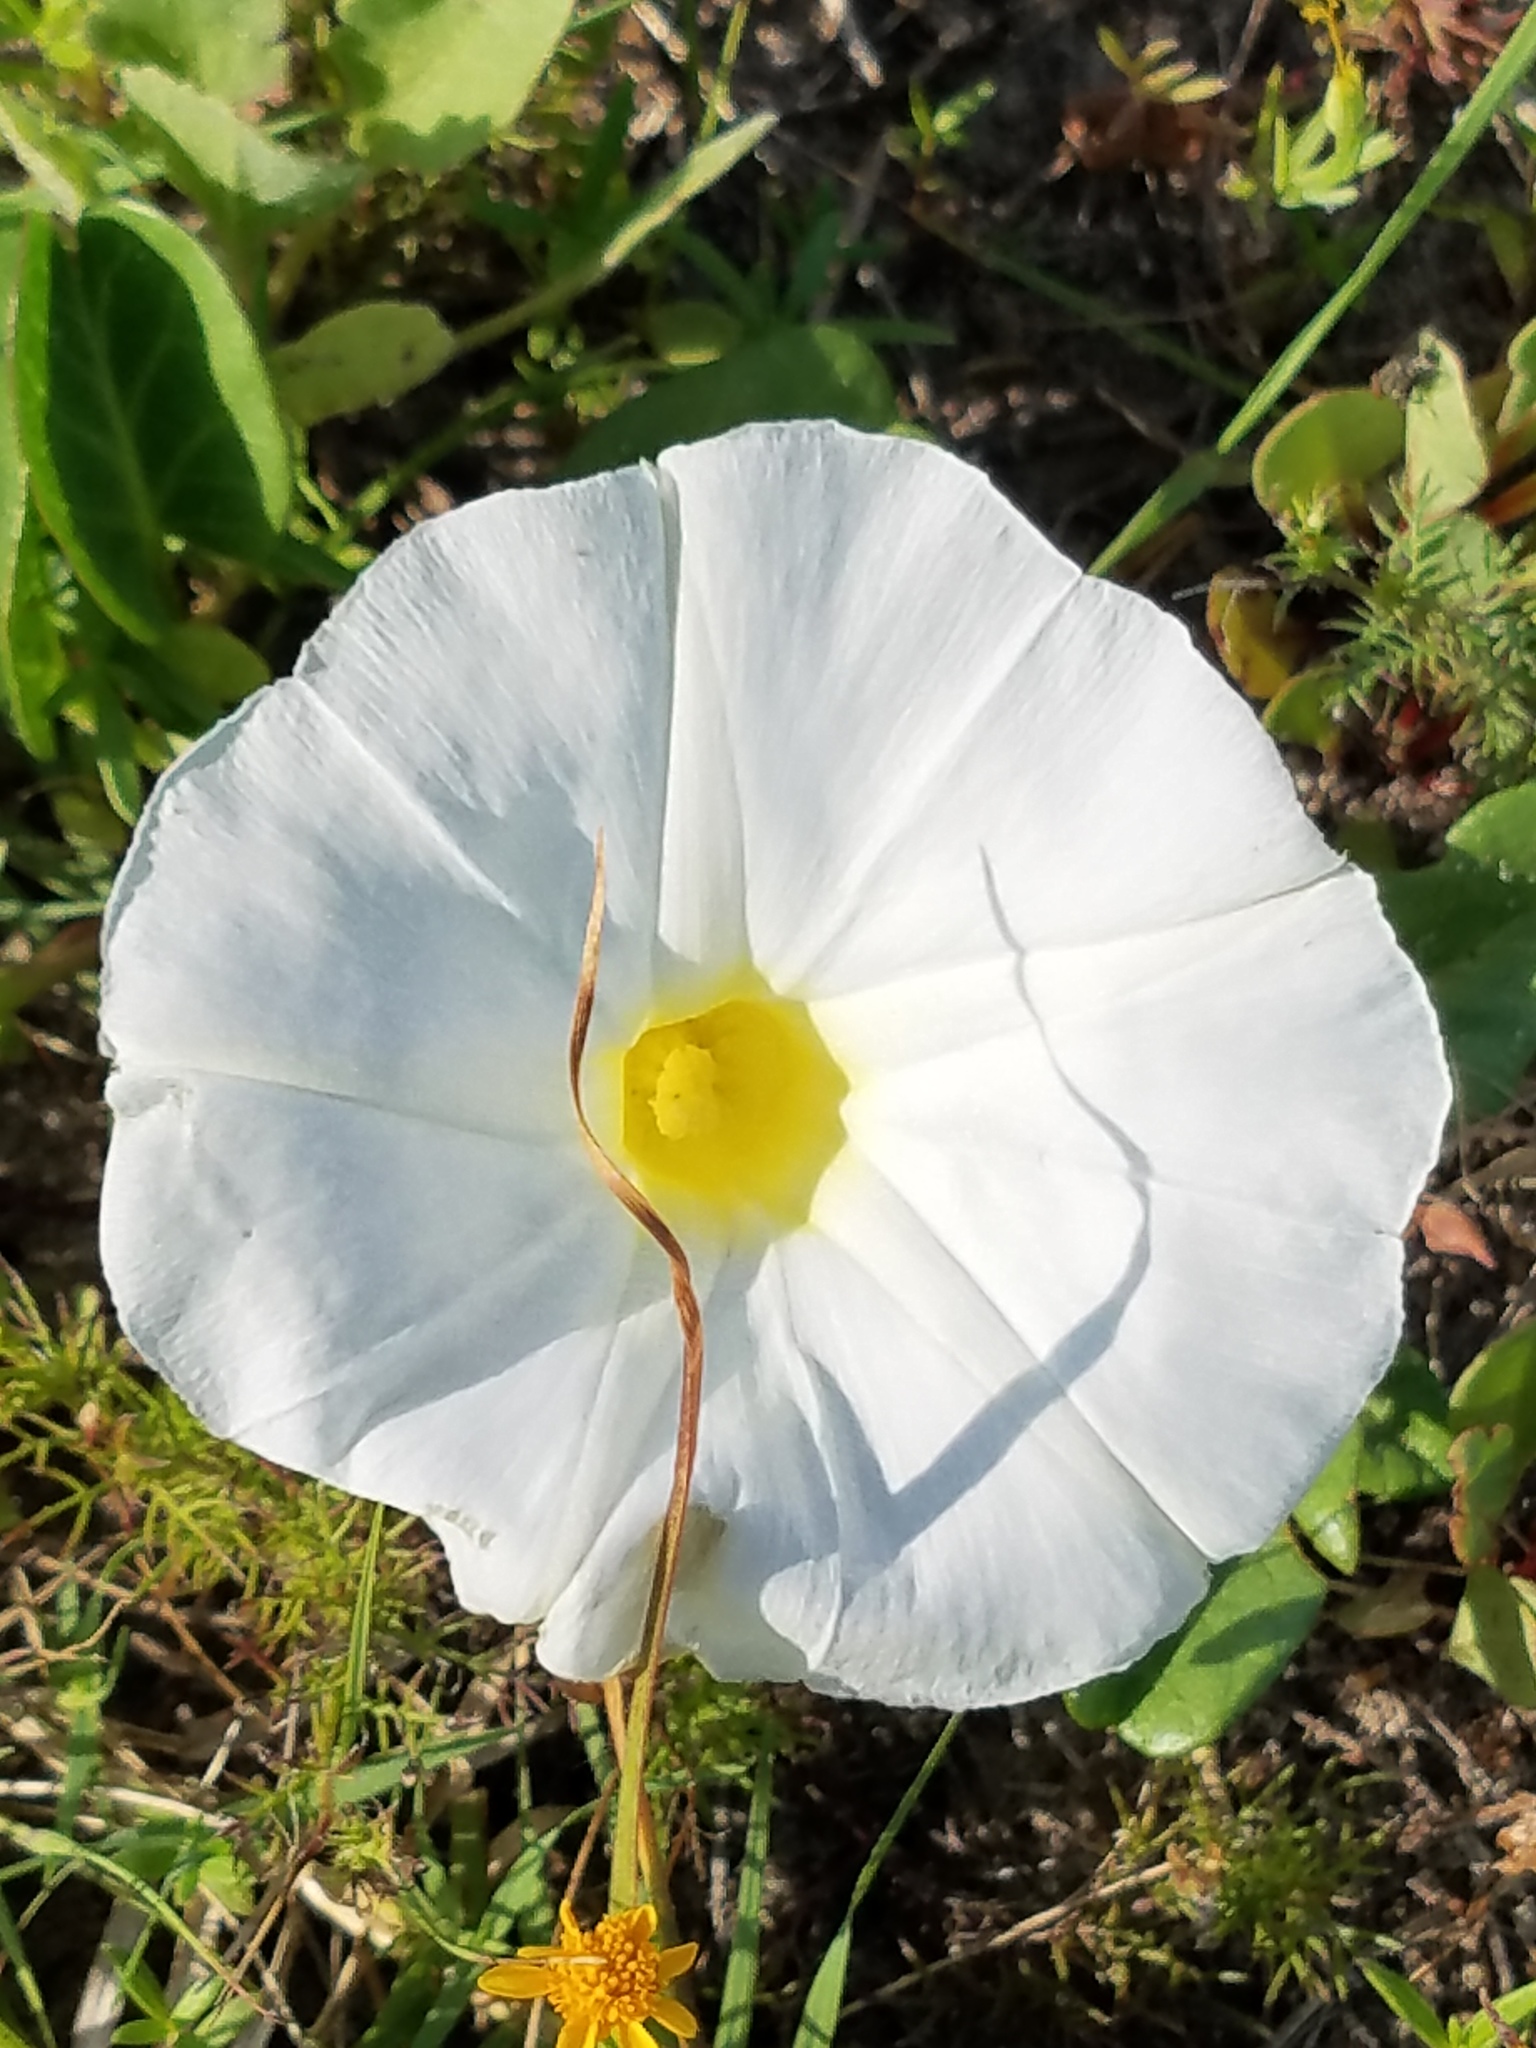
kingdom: Plantae
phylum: Tracheophyta
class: Magnoliopsida
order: Solanales
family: Convolvulaceae
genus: Ipomoea
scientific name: Ipomoea imperati
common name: Fiddle-leaf morning-glory
